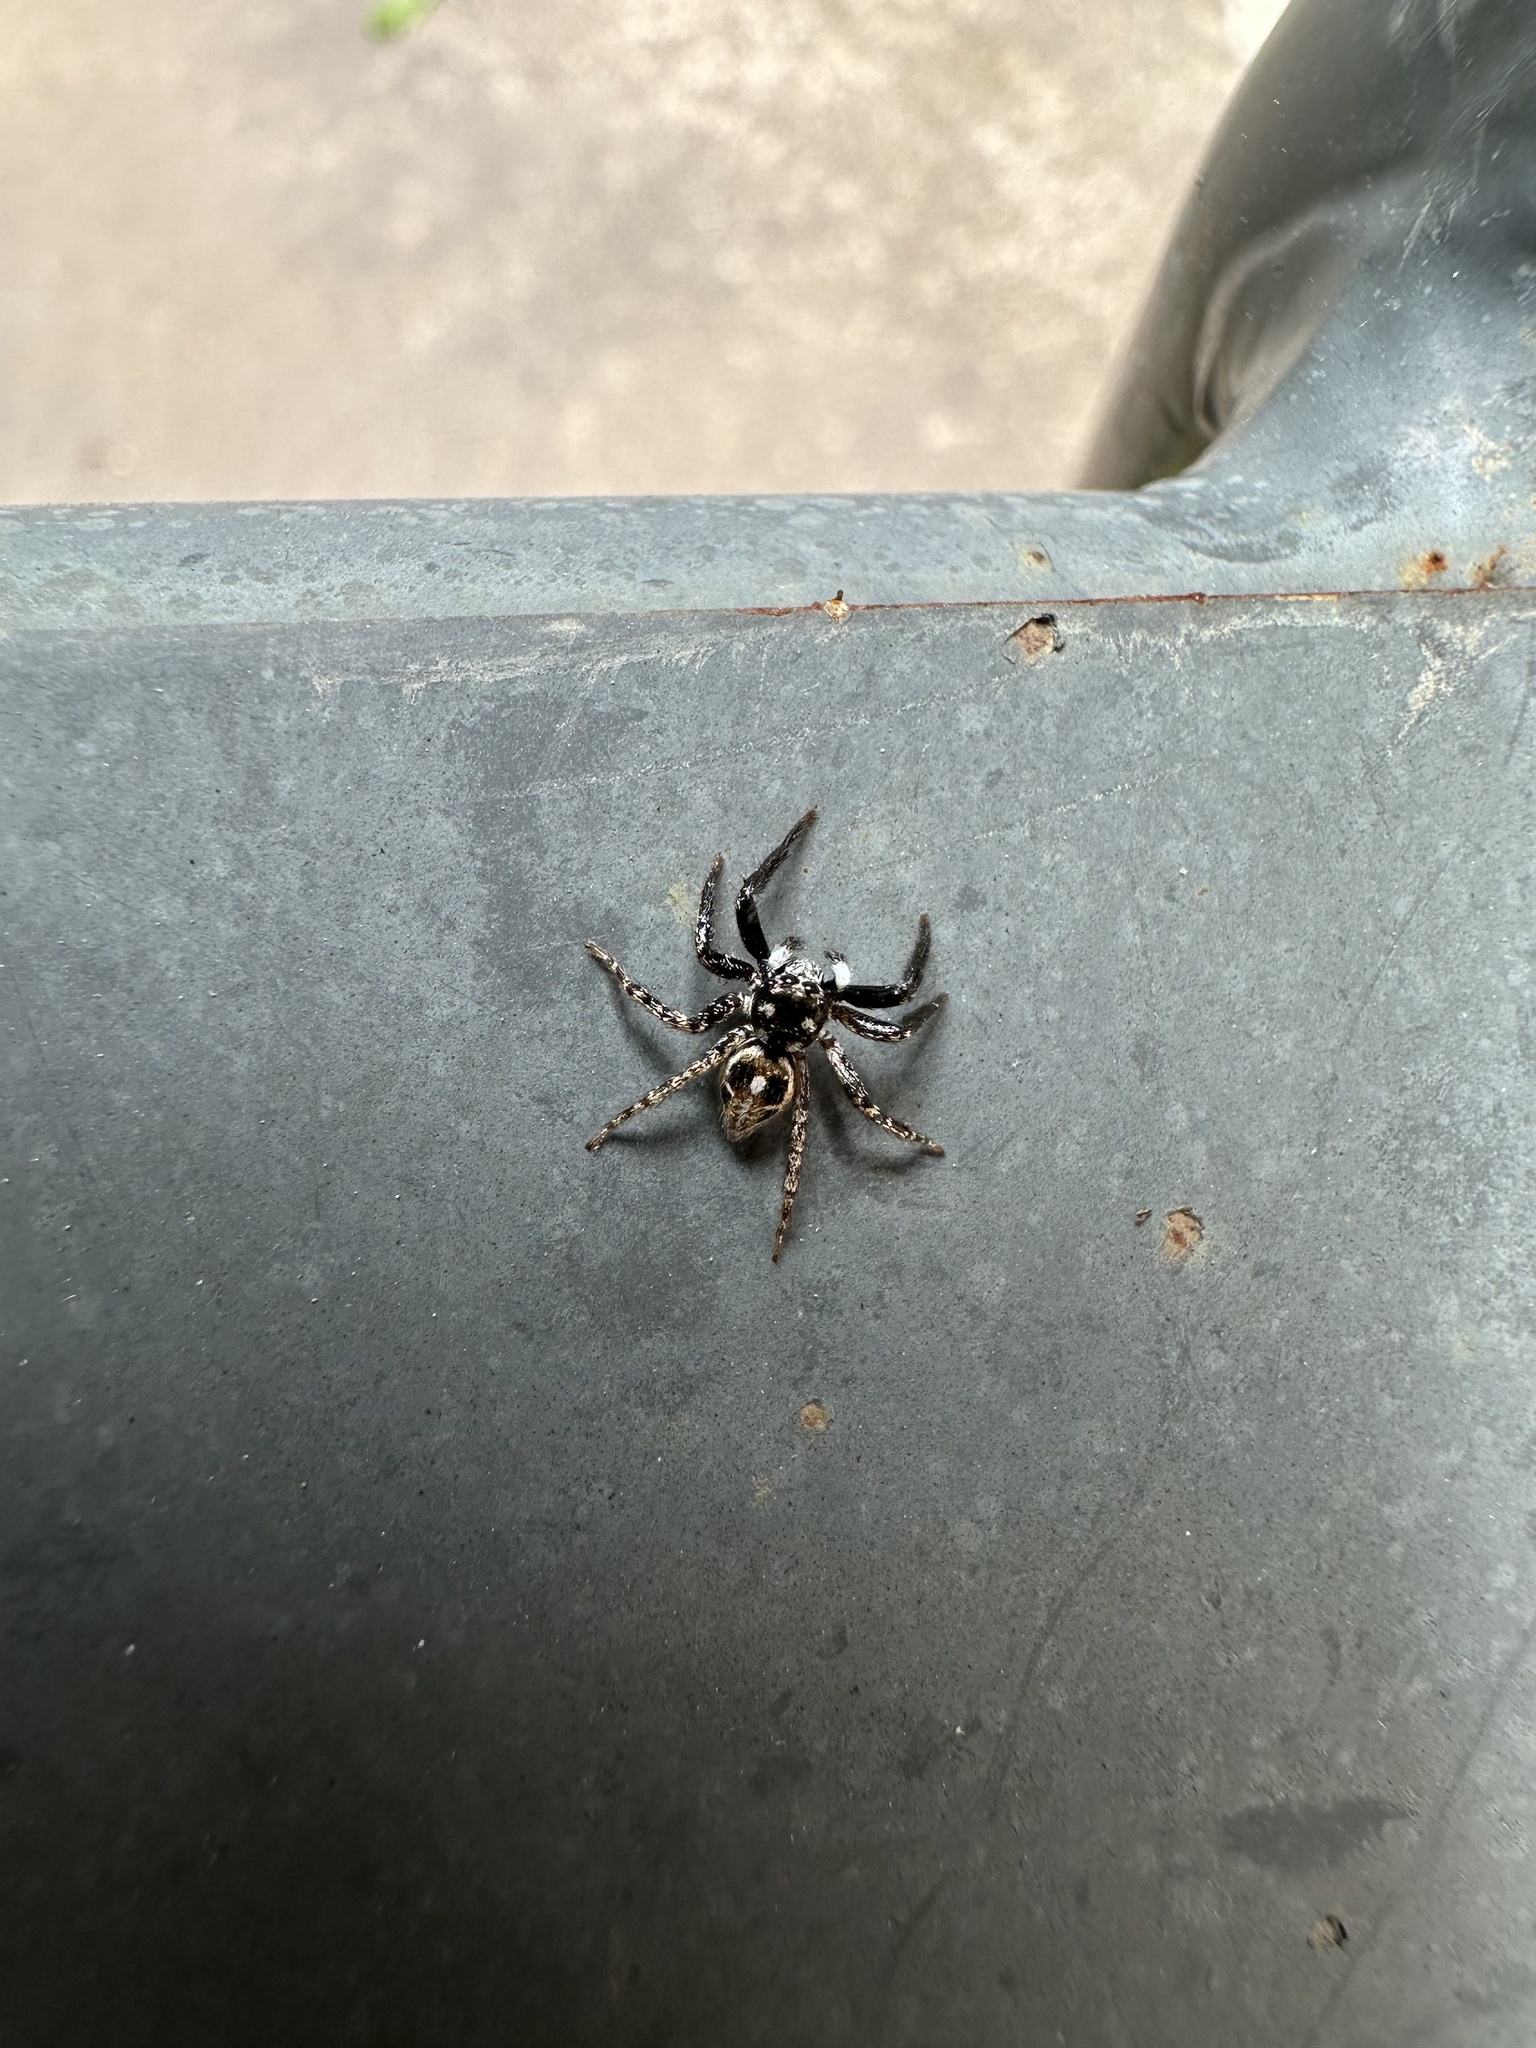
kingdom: Animalia
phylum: Arthropoda
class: Arachnida
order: Araneae
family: Salticidae
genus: Anasaitis
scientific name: Anasaitis canosa
